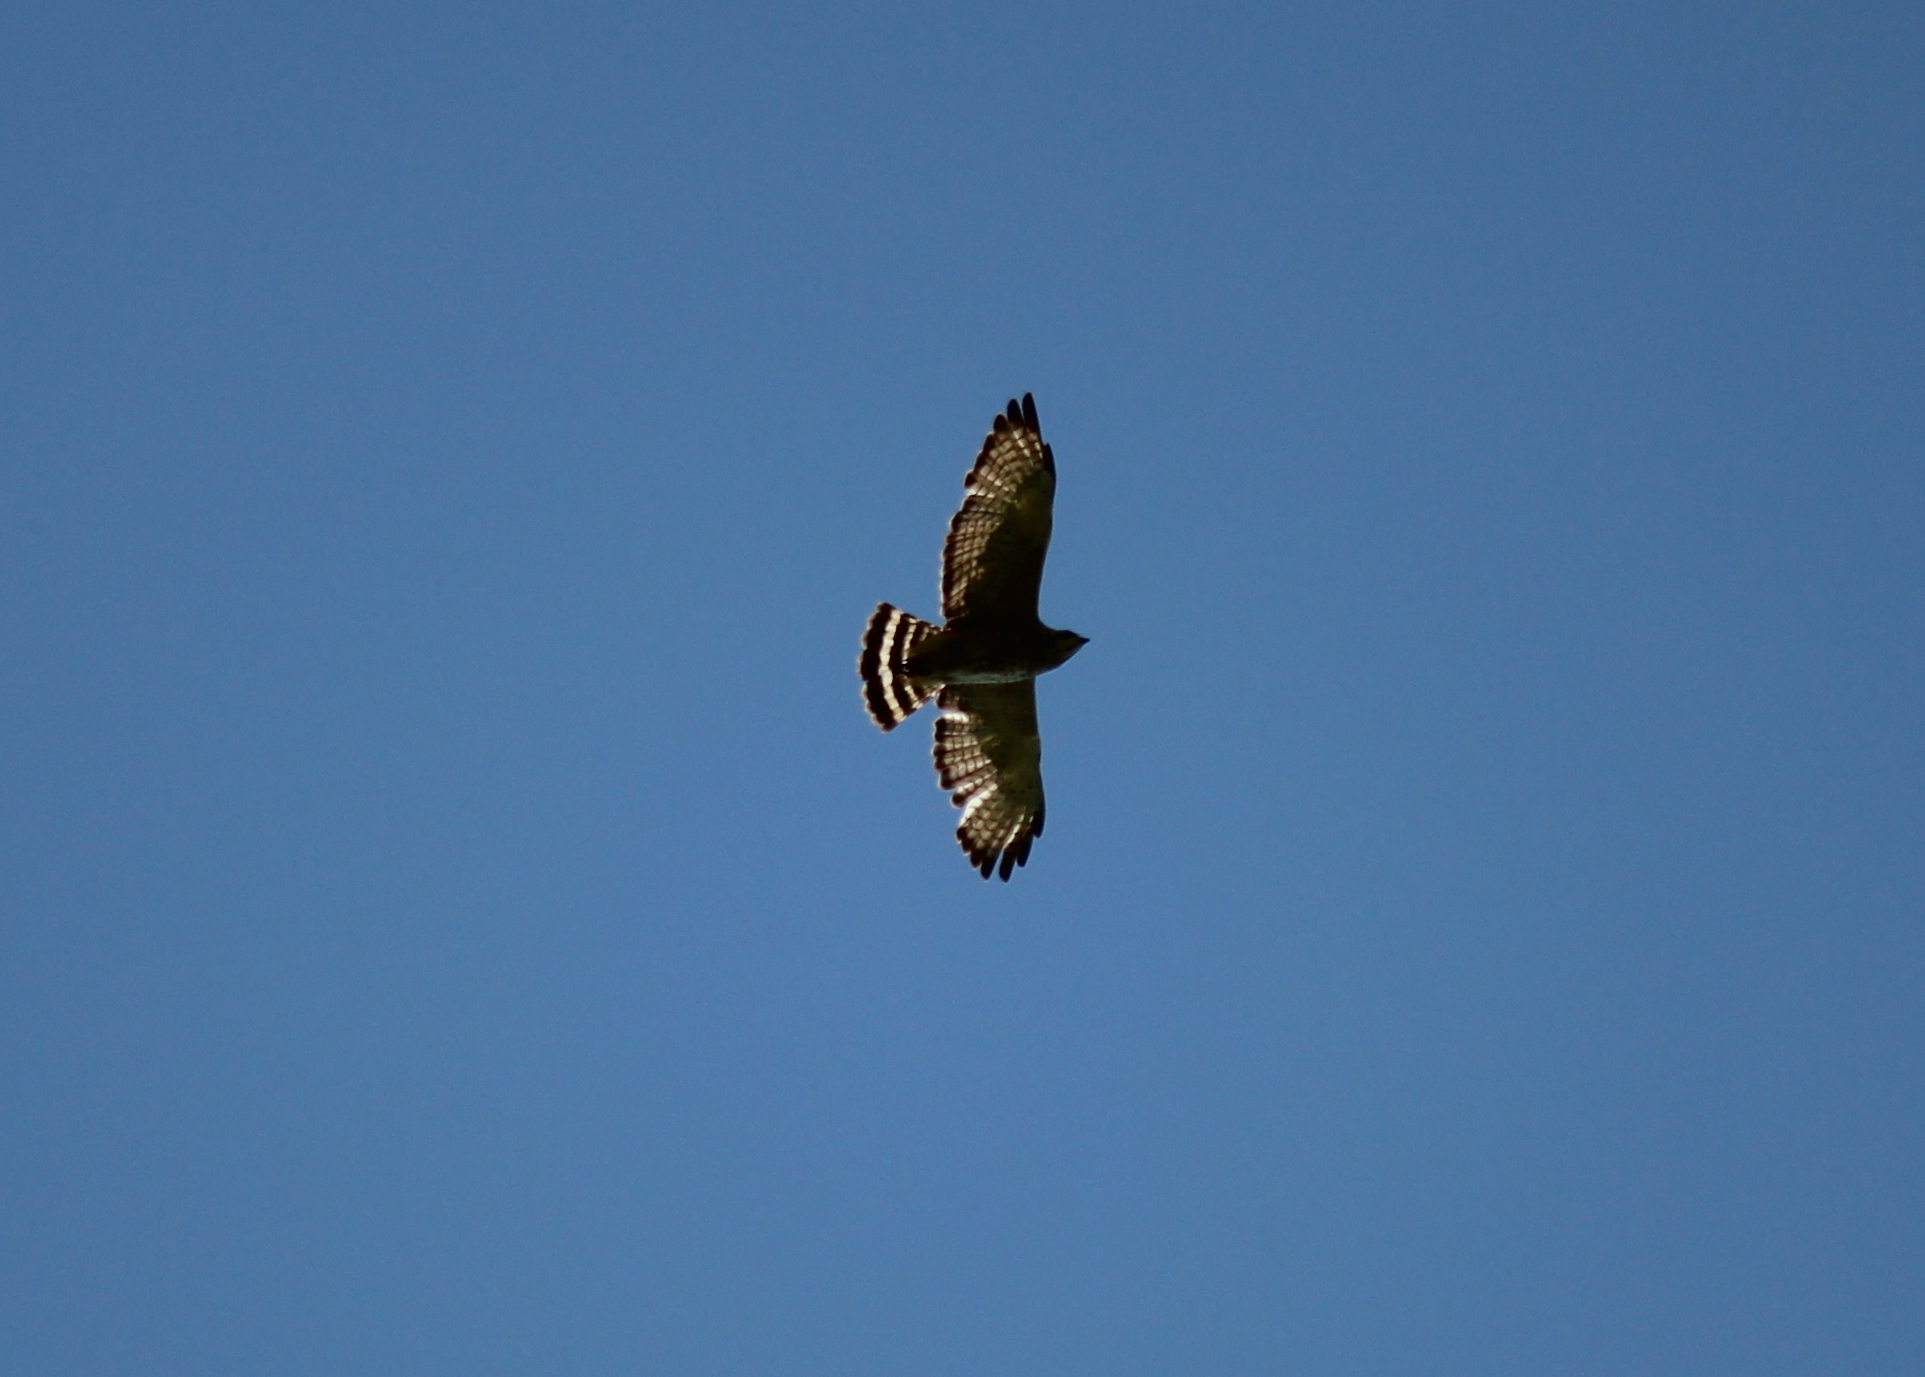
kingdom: Animalia
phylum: Chordata
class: Aves
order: Accipitriformes
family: Accipitridae
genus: Buteo
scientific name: Buteo platypterus
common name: Broad-winged hawk
